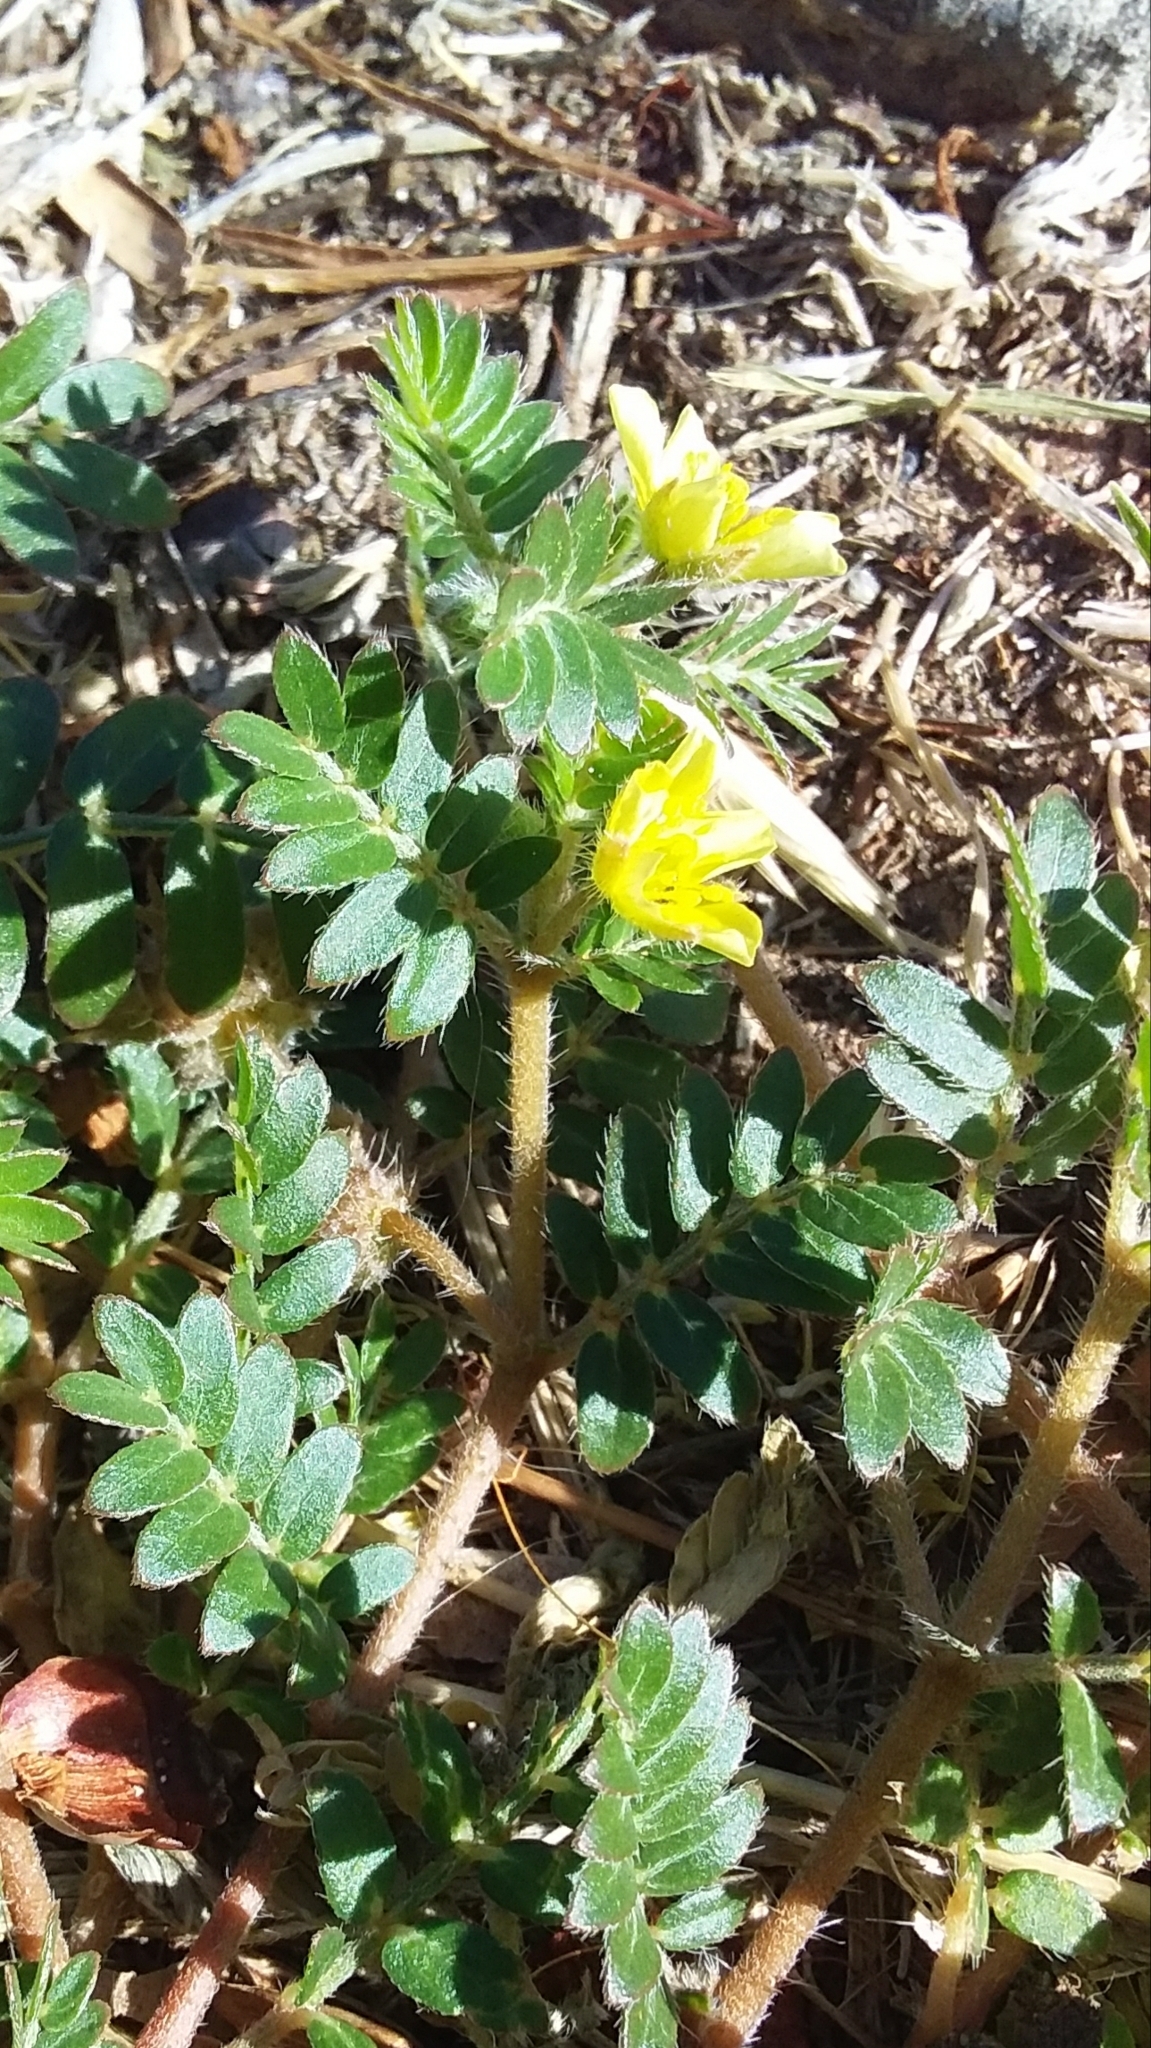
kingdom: Plantae
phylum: Tracheophyta
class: Magnoliopsida
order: Zygophyllales
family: Zygophyllaceae
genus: Tribulus
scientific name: Tribulus terrestris
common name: Puncturevine
